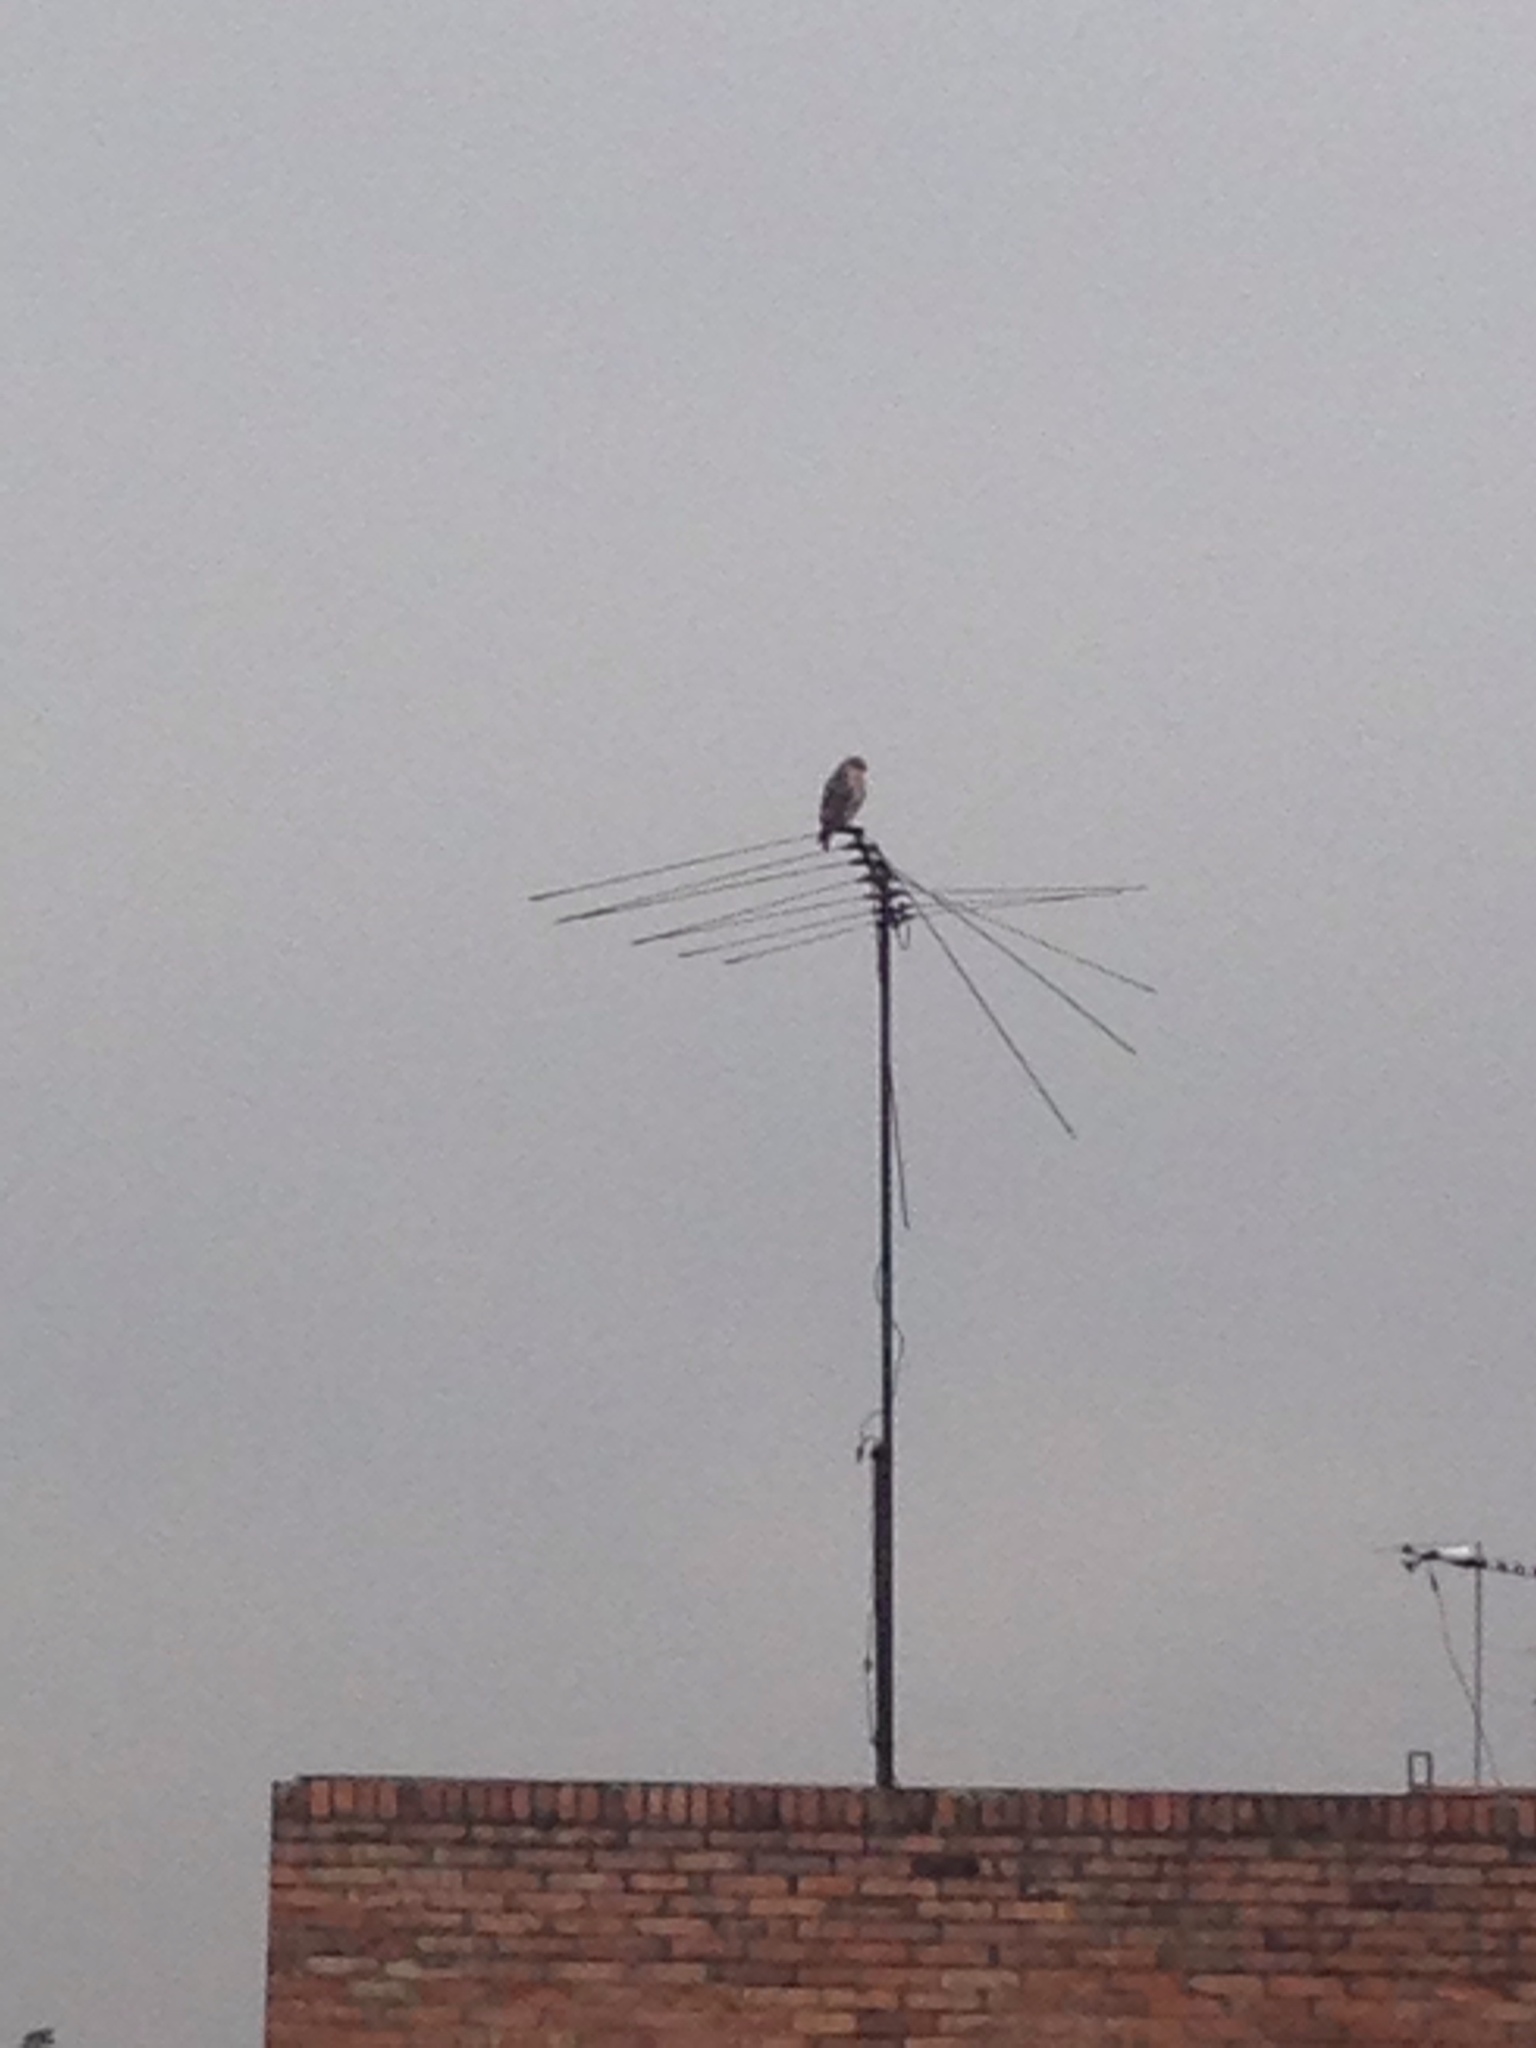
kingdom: Animalia
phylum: Chordata
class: Aves
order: Accipitriformes
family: Accipitridae
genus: Rupornis
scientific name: Rupornis magnirostris
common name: Roadside hawk
